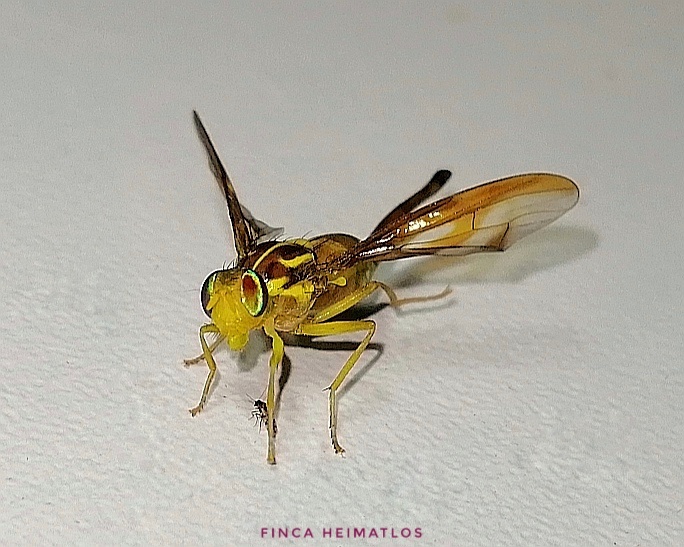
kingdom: Animalia
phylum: Arthropoda
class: Insecta
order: Diptera
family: Tephritidae
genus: Anastrepha
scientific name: Anastrepha grandis
